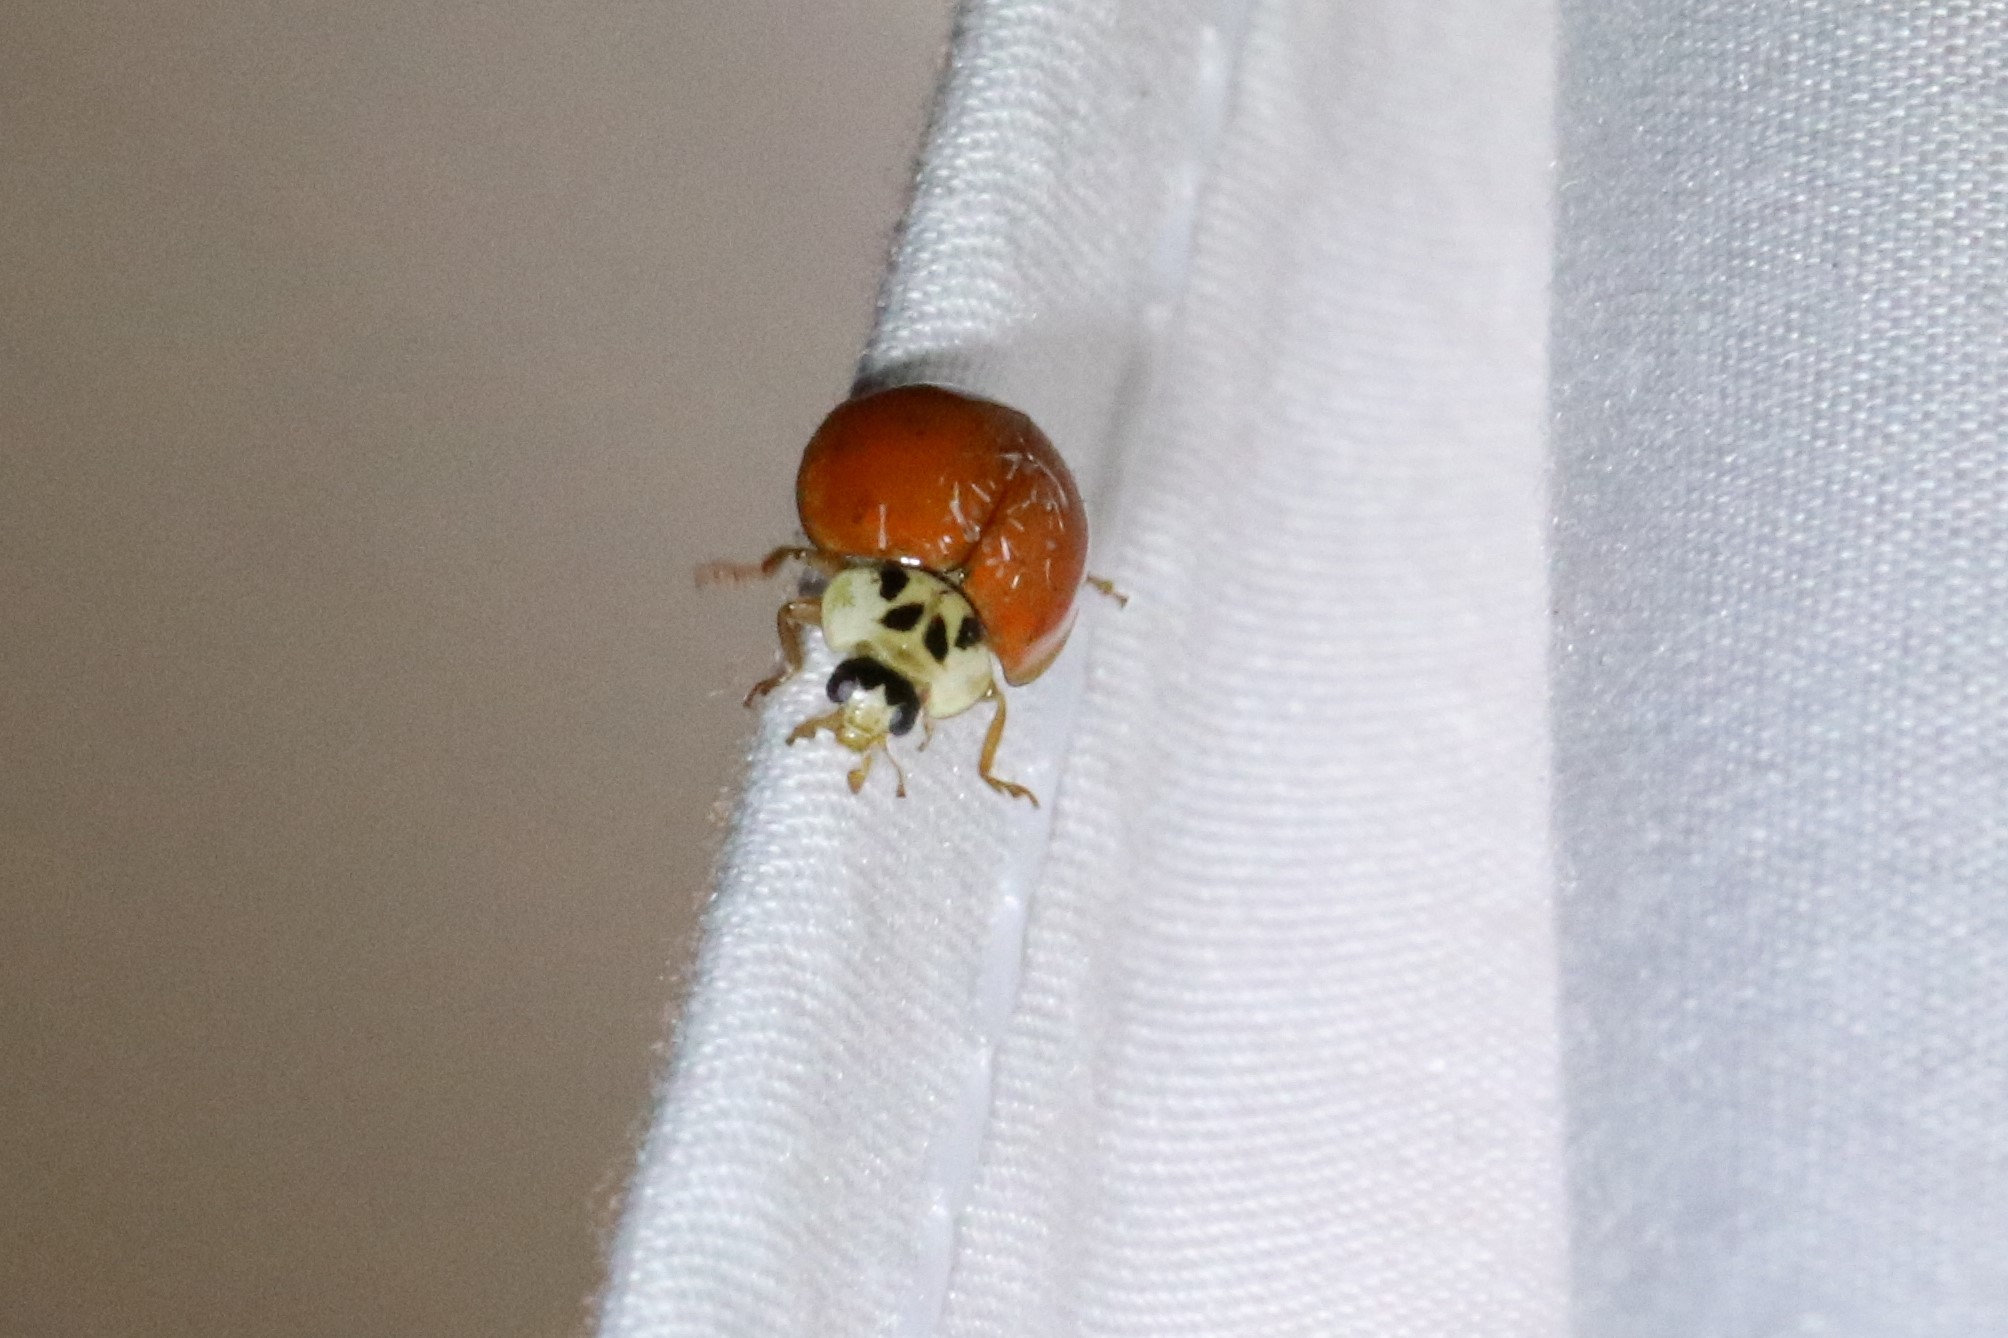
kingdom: Animalia
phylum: Arthropoda
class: Insecta
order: Coleoptera
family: Coccinellidae
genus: Harmonia
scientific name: Harmonia axyridis
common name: Harlequin ladybird
